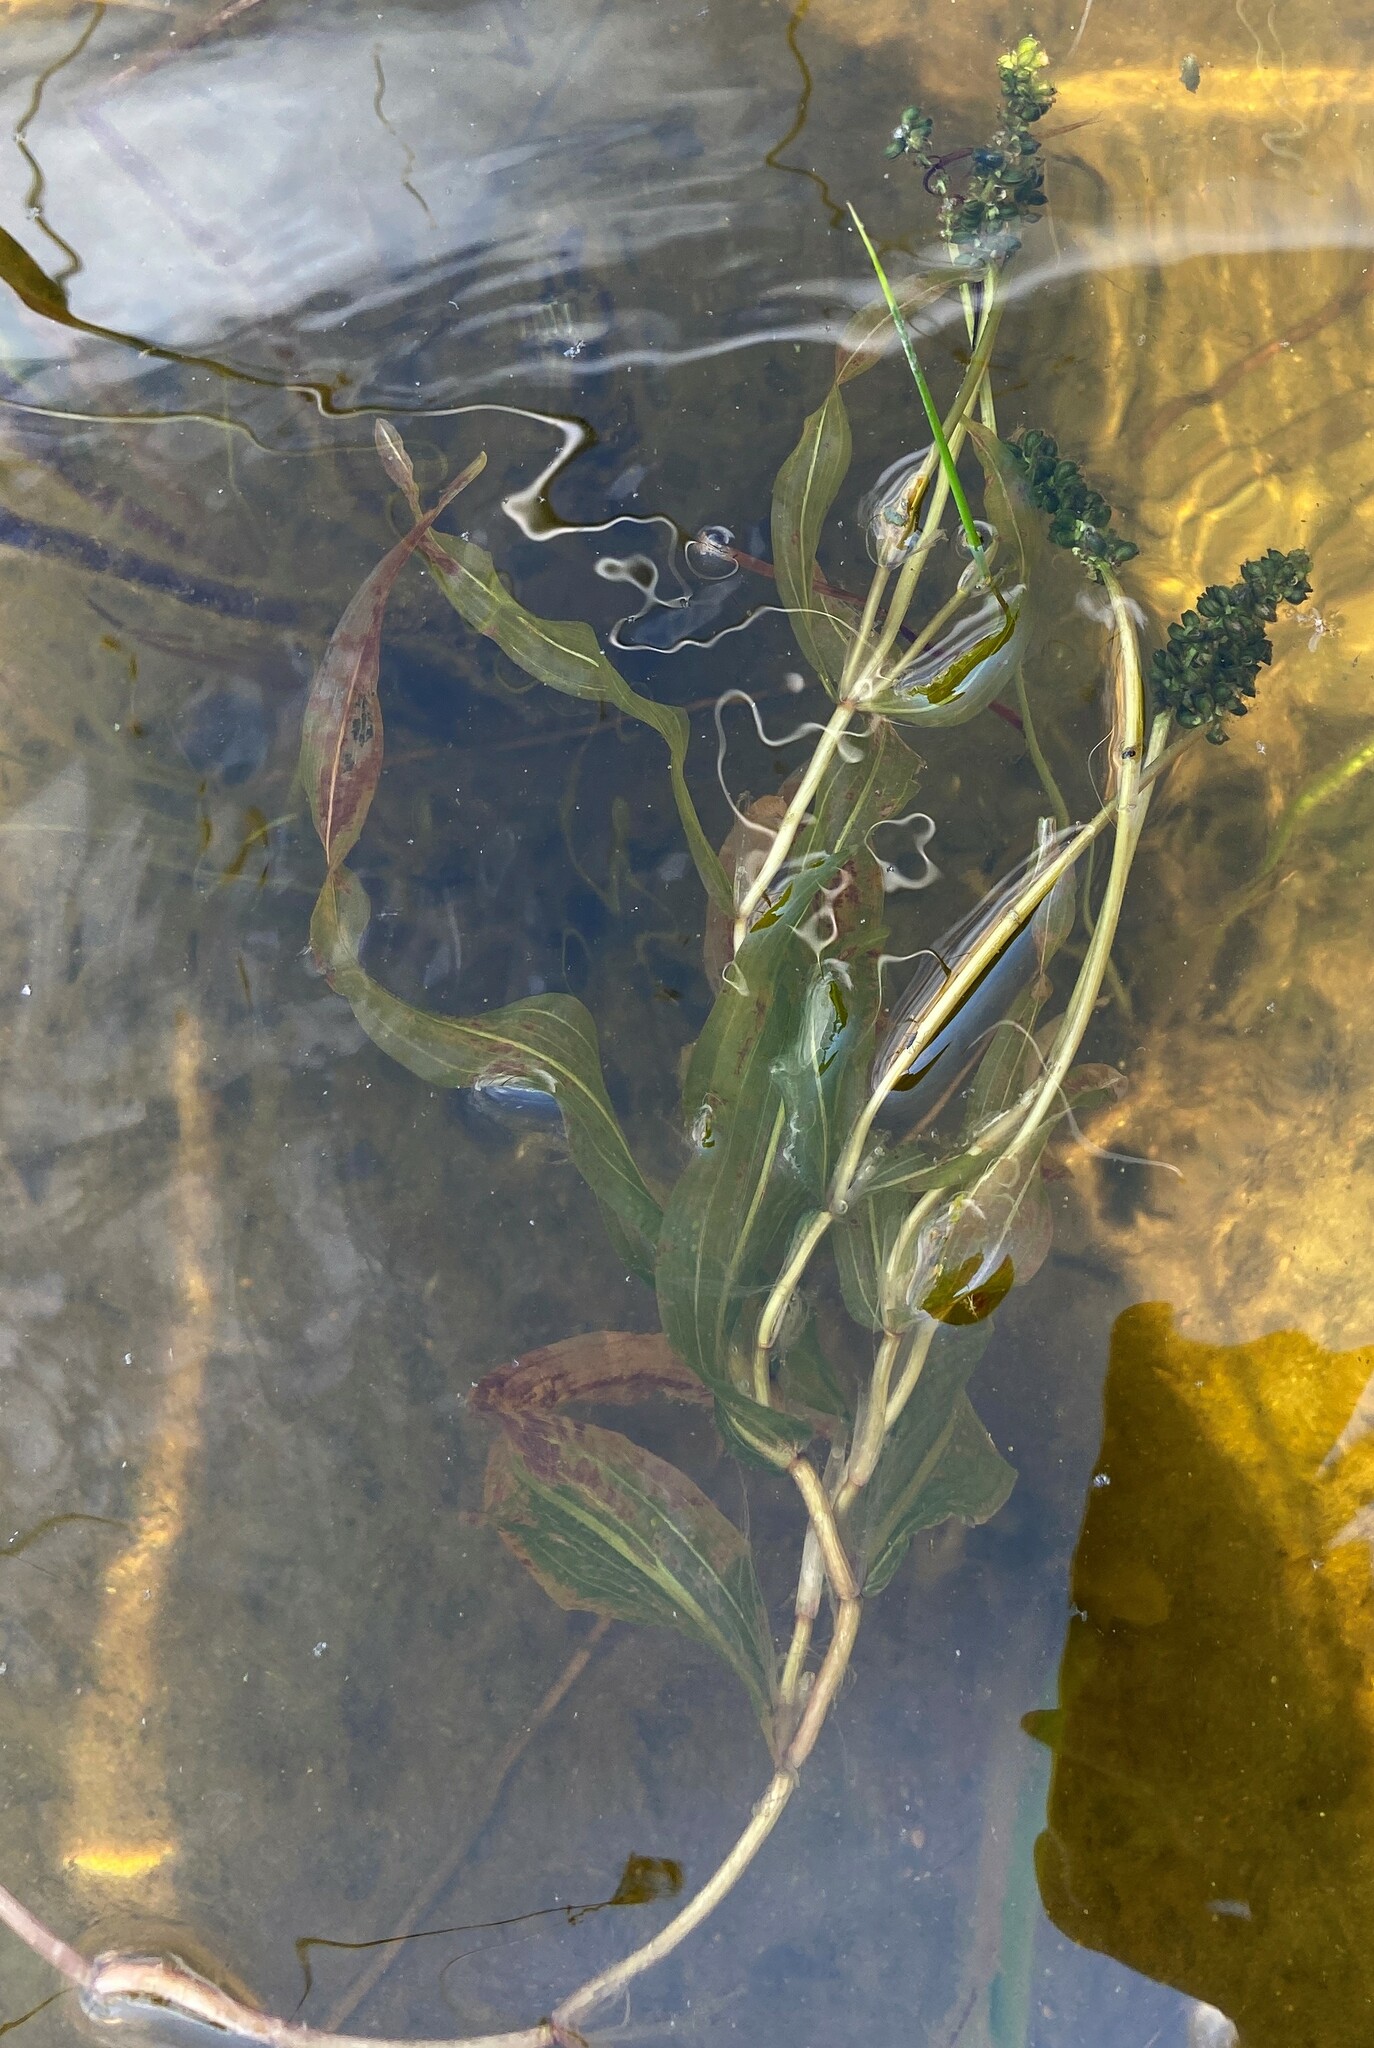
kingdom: Plantae
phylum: Tracheophyta
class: Liliopsida
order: Alismatales
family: Potamogetonaceae
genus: Potamogeton
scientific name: Potamogeton praelongus
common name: Long-stalked pondweed
